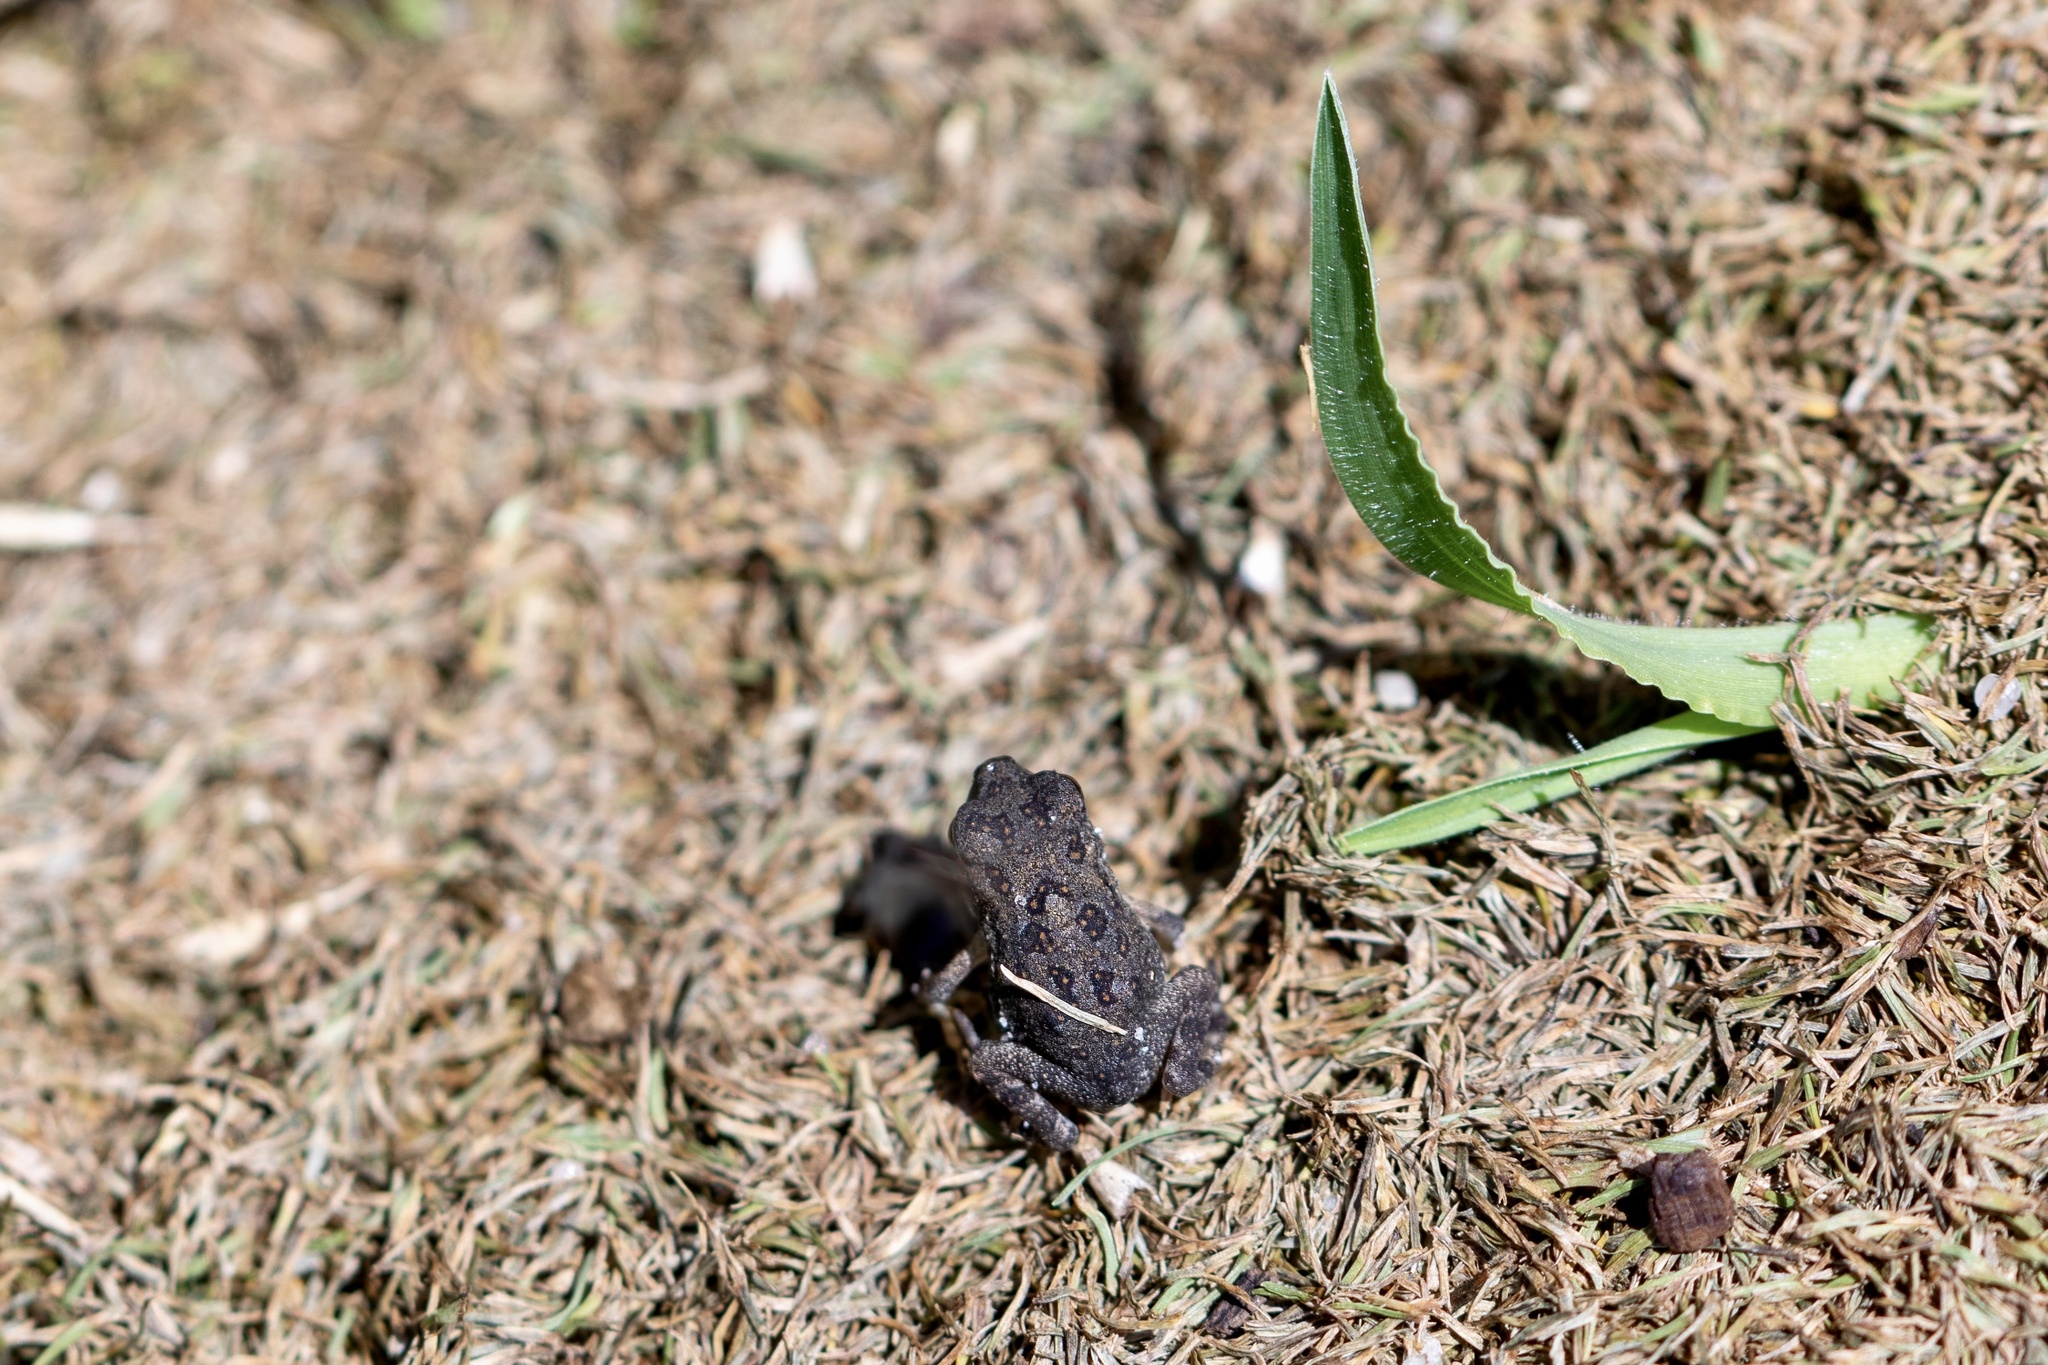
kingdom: Animalia
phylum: Chordata
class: Amphibia
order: Anura
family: Bufonidae
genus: Anaxyrus
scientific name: Anaxyrus terrestris
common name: Southern toad
